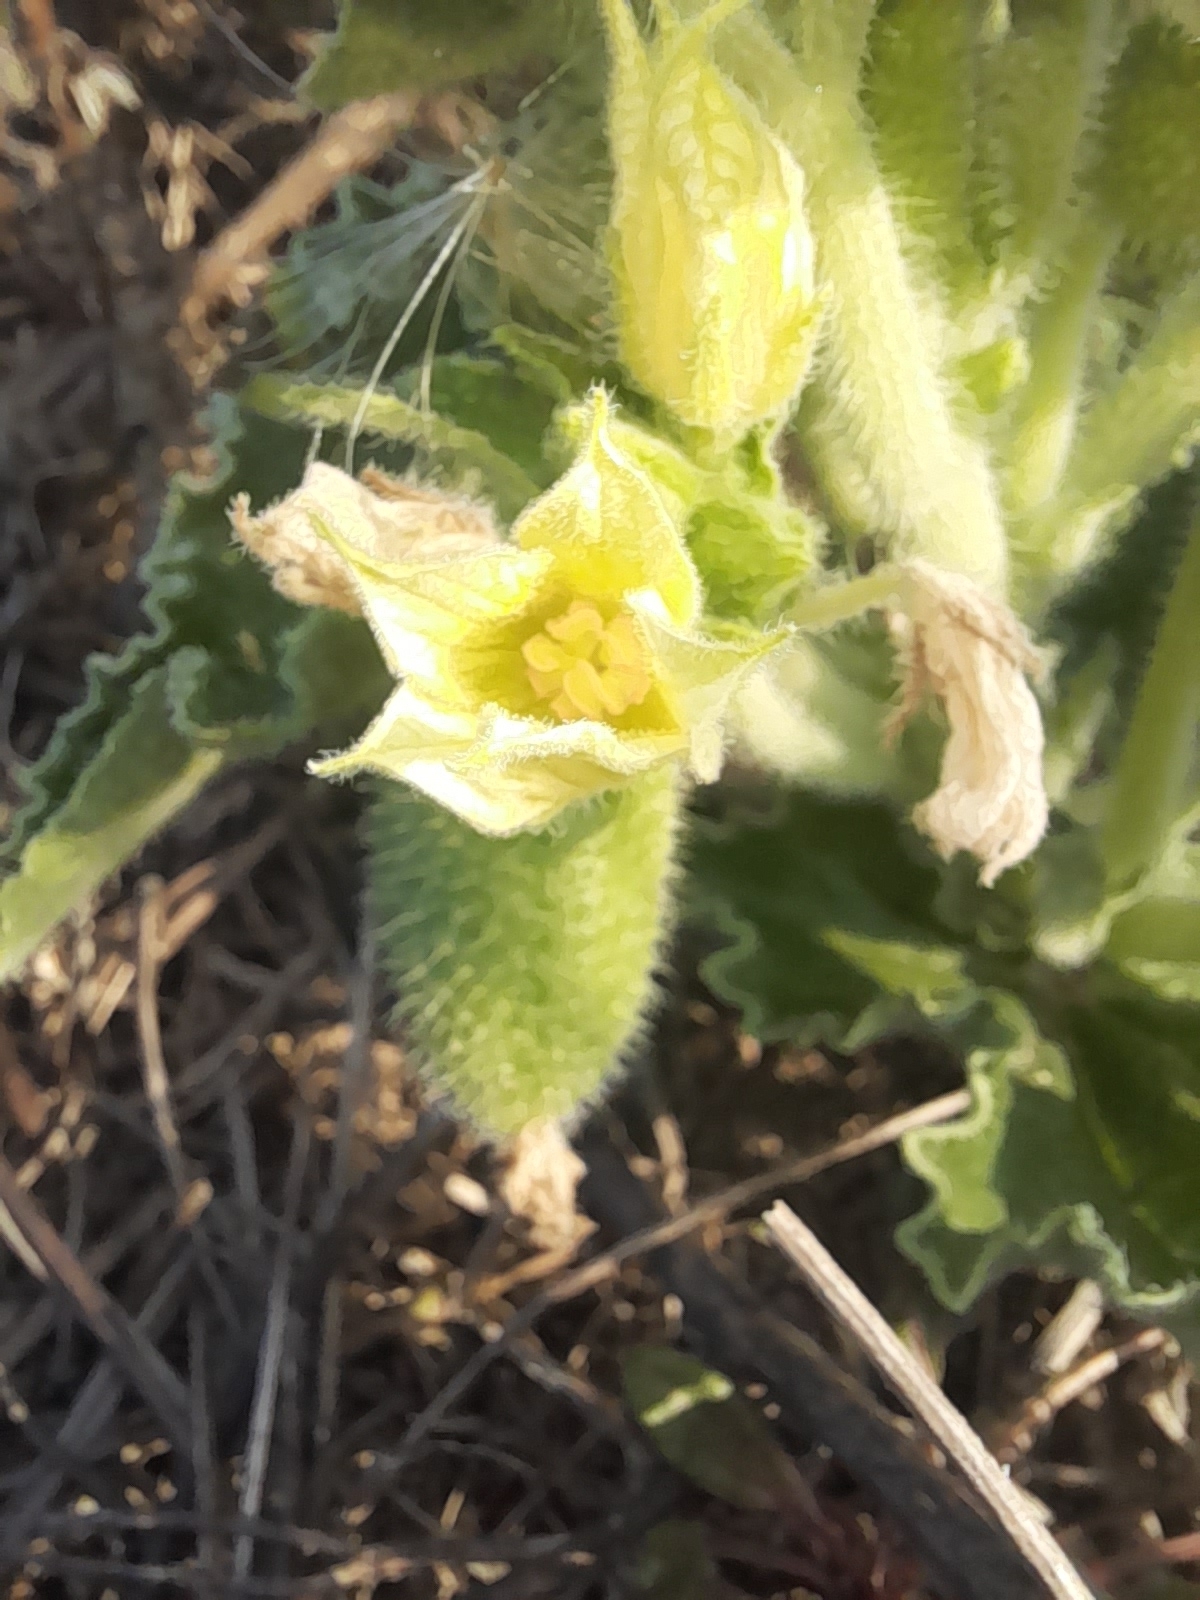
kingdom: Plantae
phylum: Tracheophyta
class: Magnoliopsida
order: Cucurbitales
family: Cucurbitaceae
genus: Ecballium
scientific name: Ecballium elaterium
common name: Squirting cucumber
